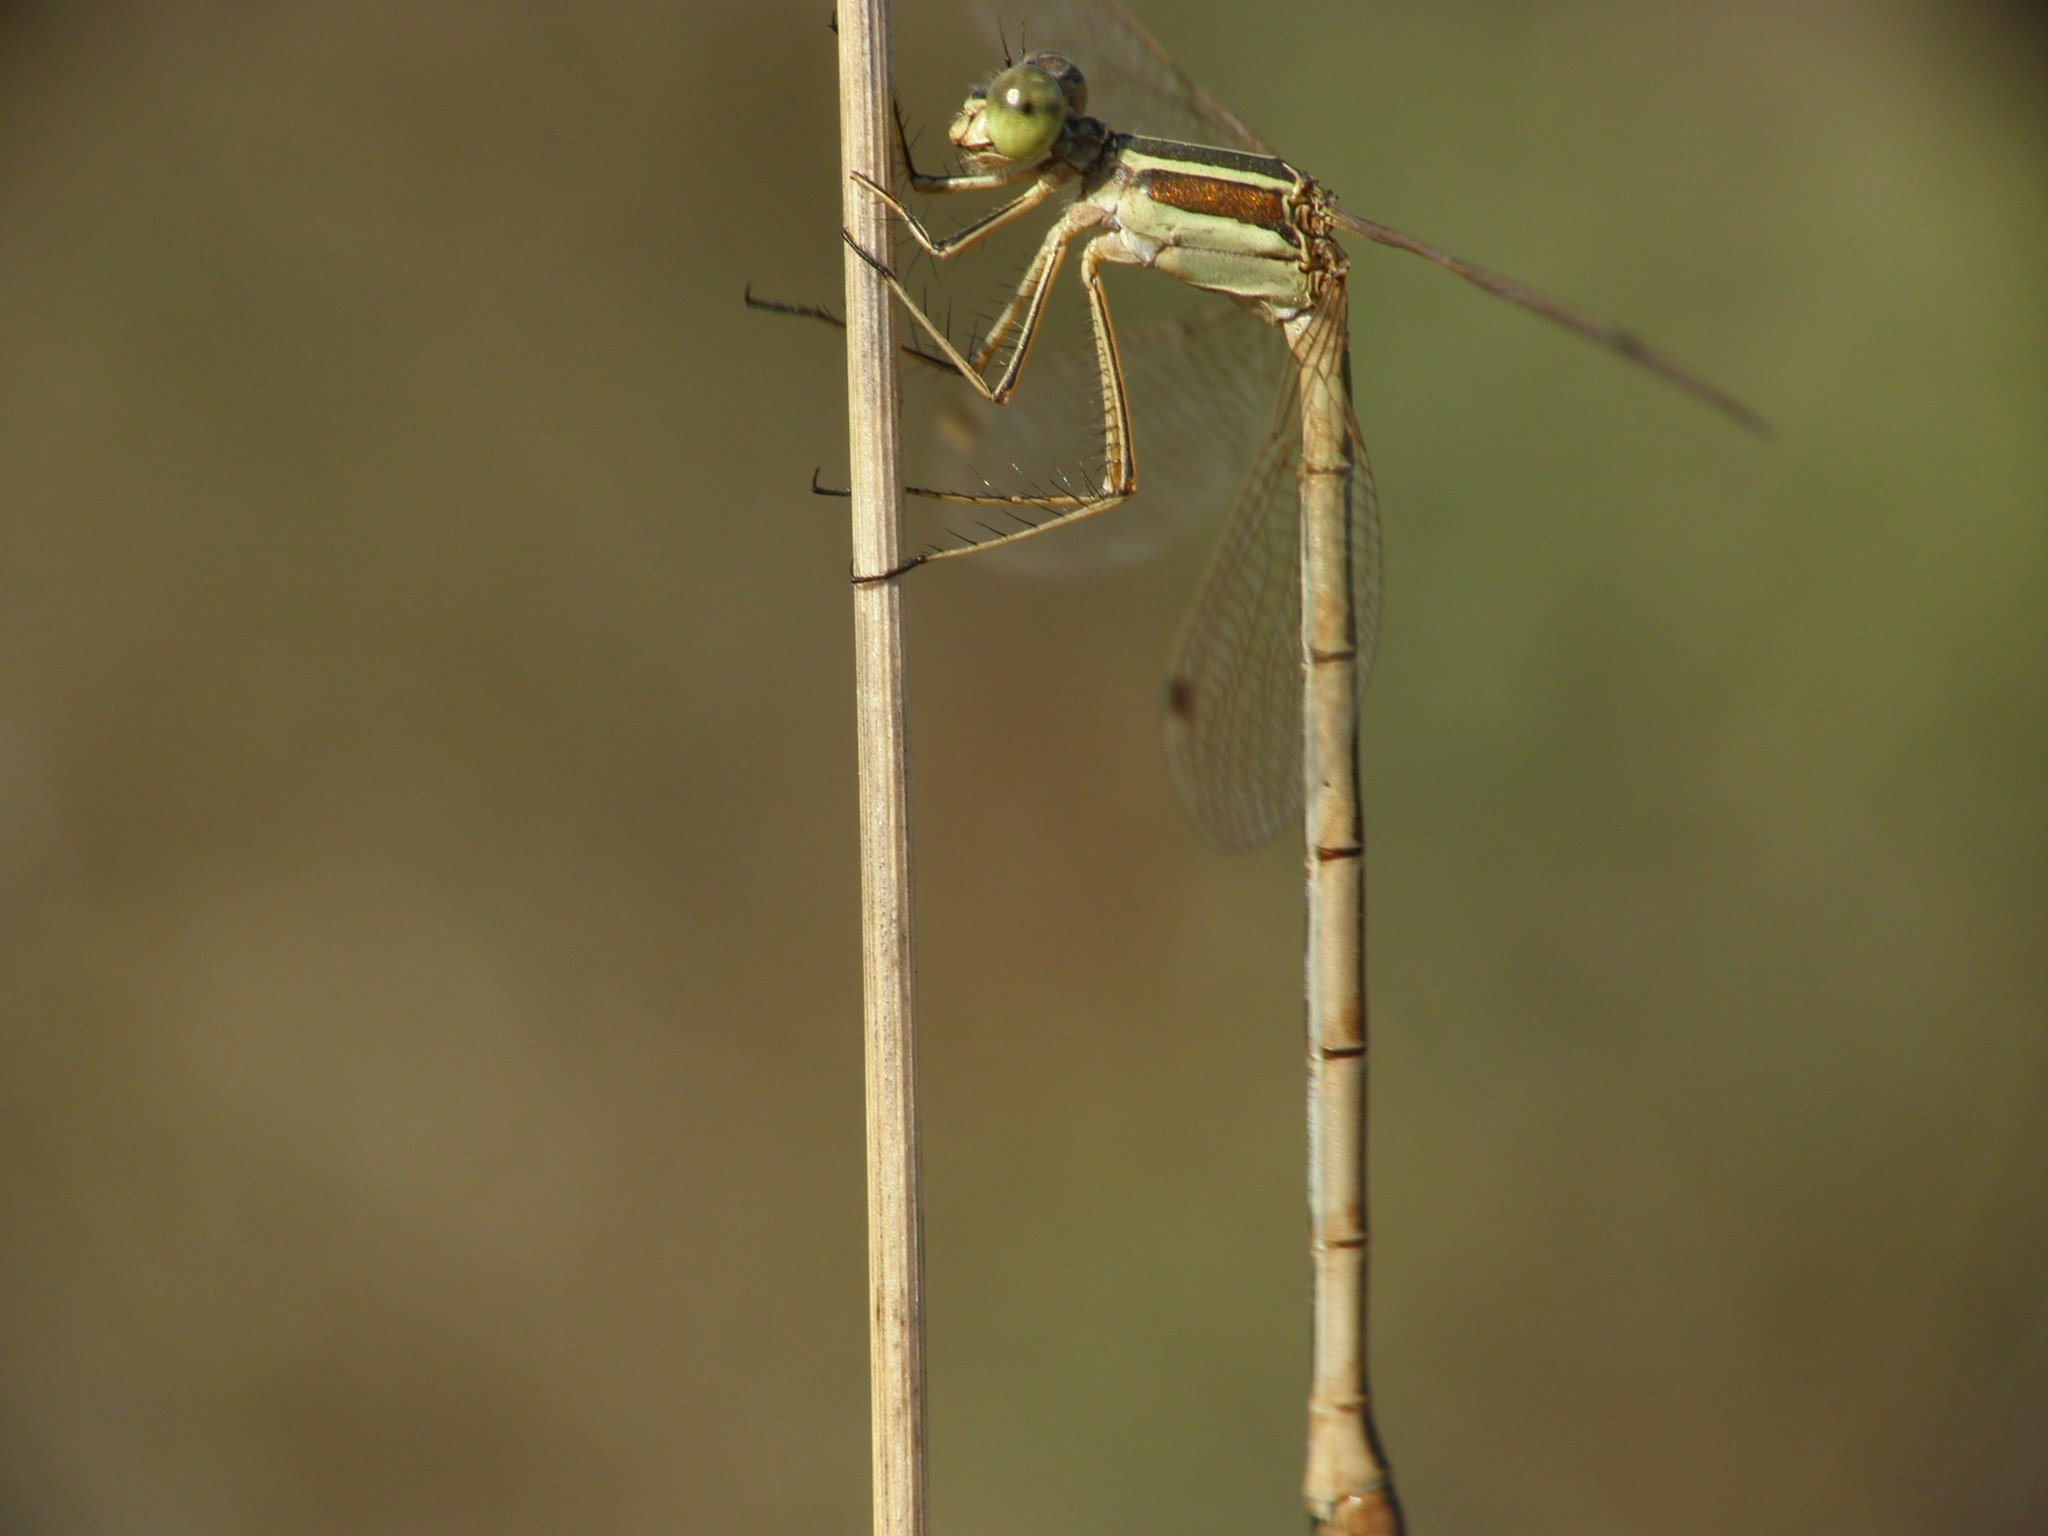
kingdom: Animalia
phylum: Arthropoda
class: Insecta
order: Odonata
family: Lestidae
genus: Lestes
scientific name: Lestes barbarus
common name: Migrant spreadwing
